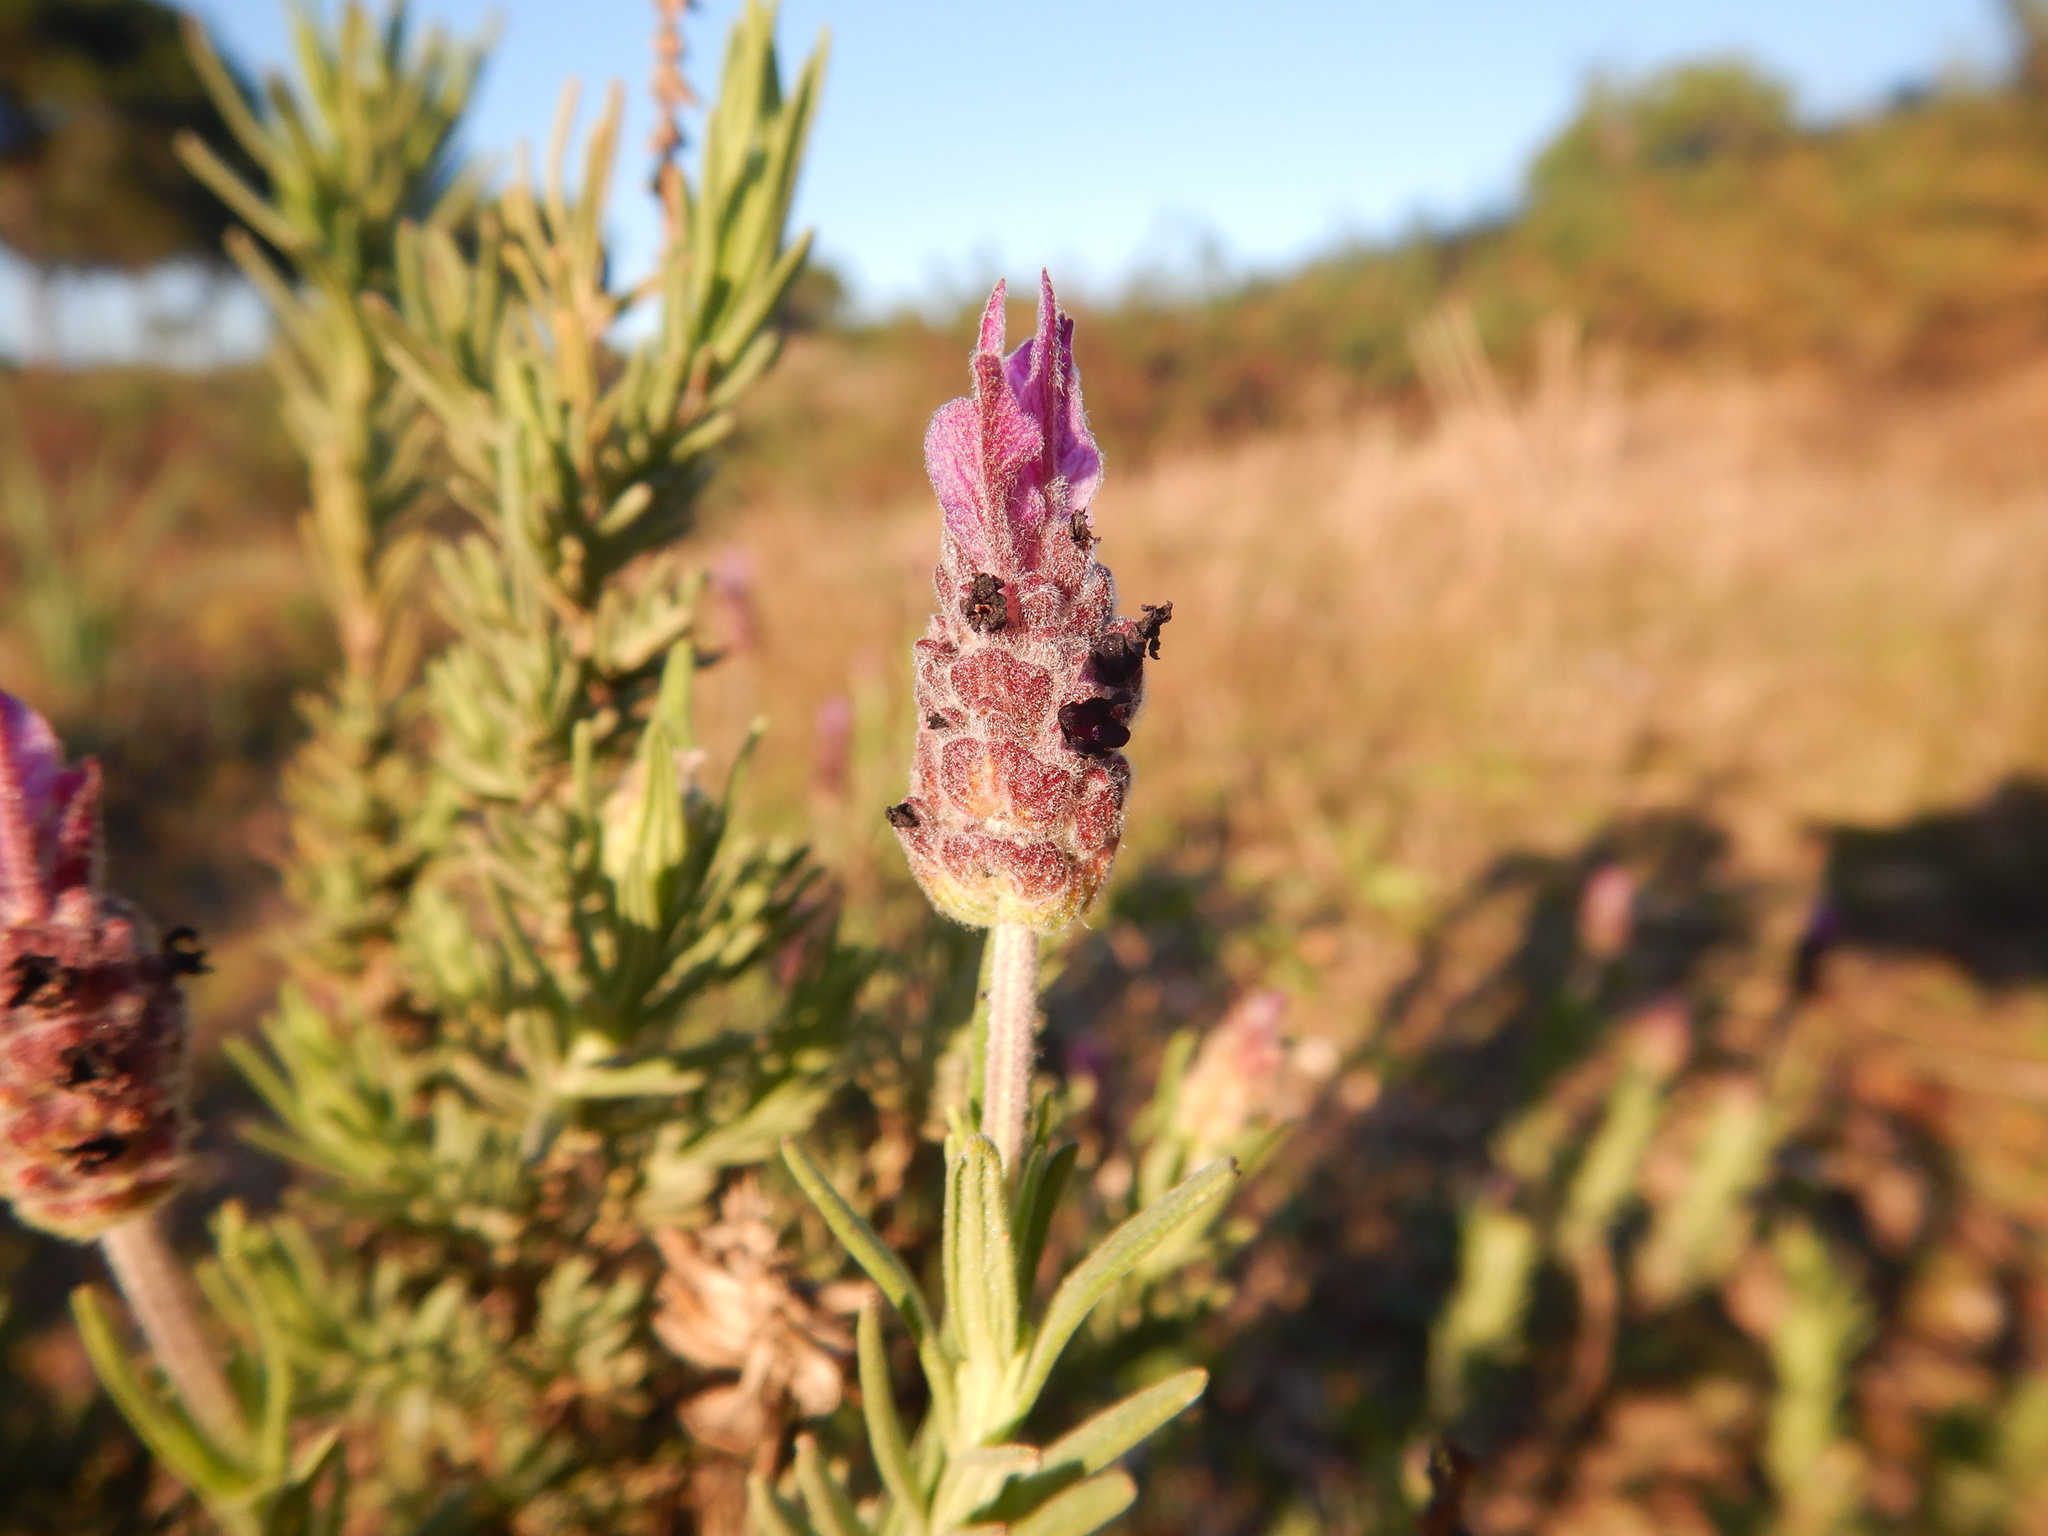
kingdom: Plantae
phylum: Tracheophyta
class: Magnoliopsida
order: Lamiales
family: Lamiaceae
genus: Lavandula
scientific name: Lavandula stoechas
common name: French lavender
